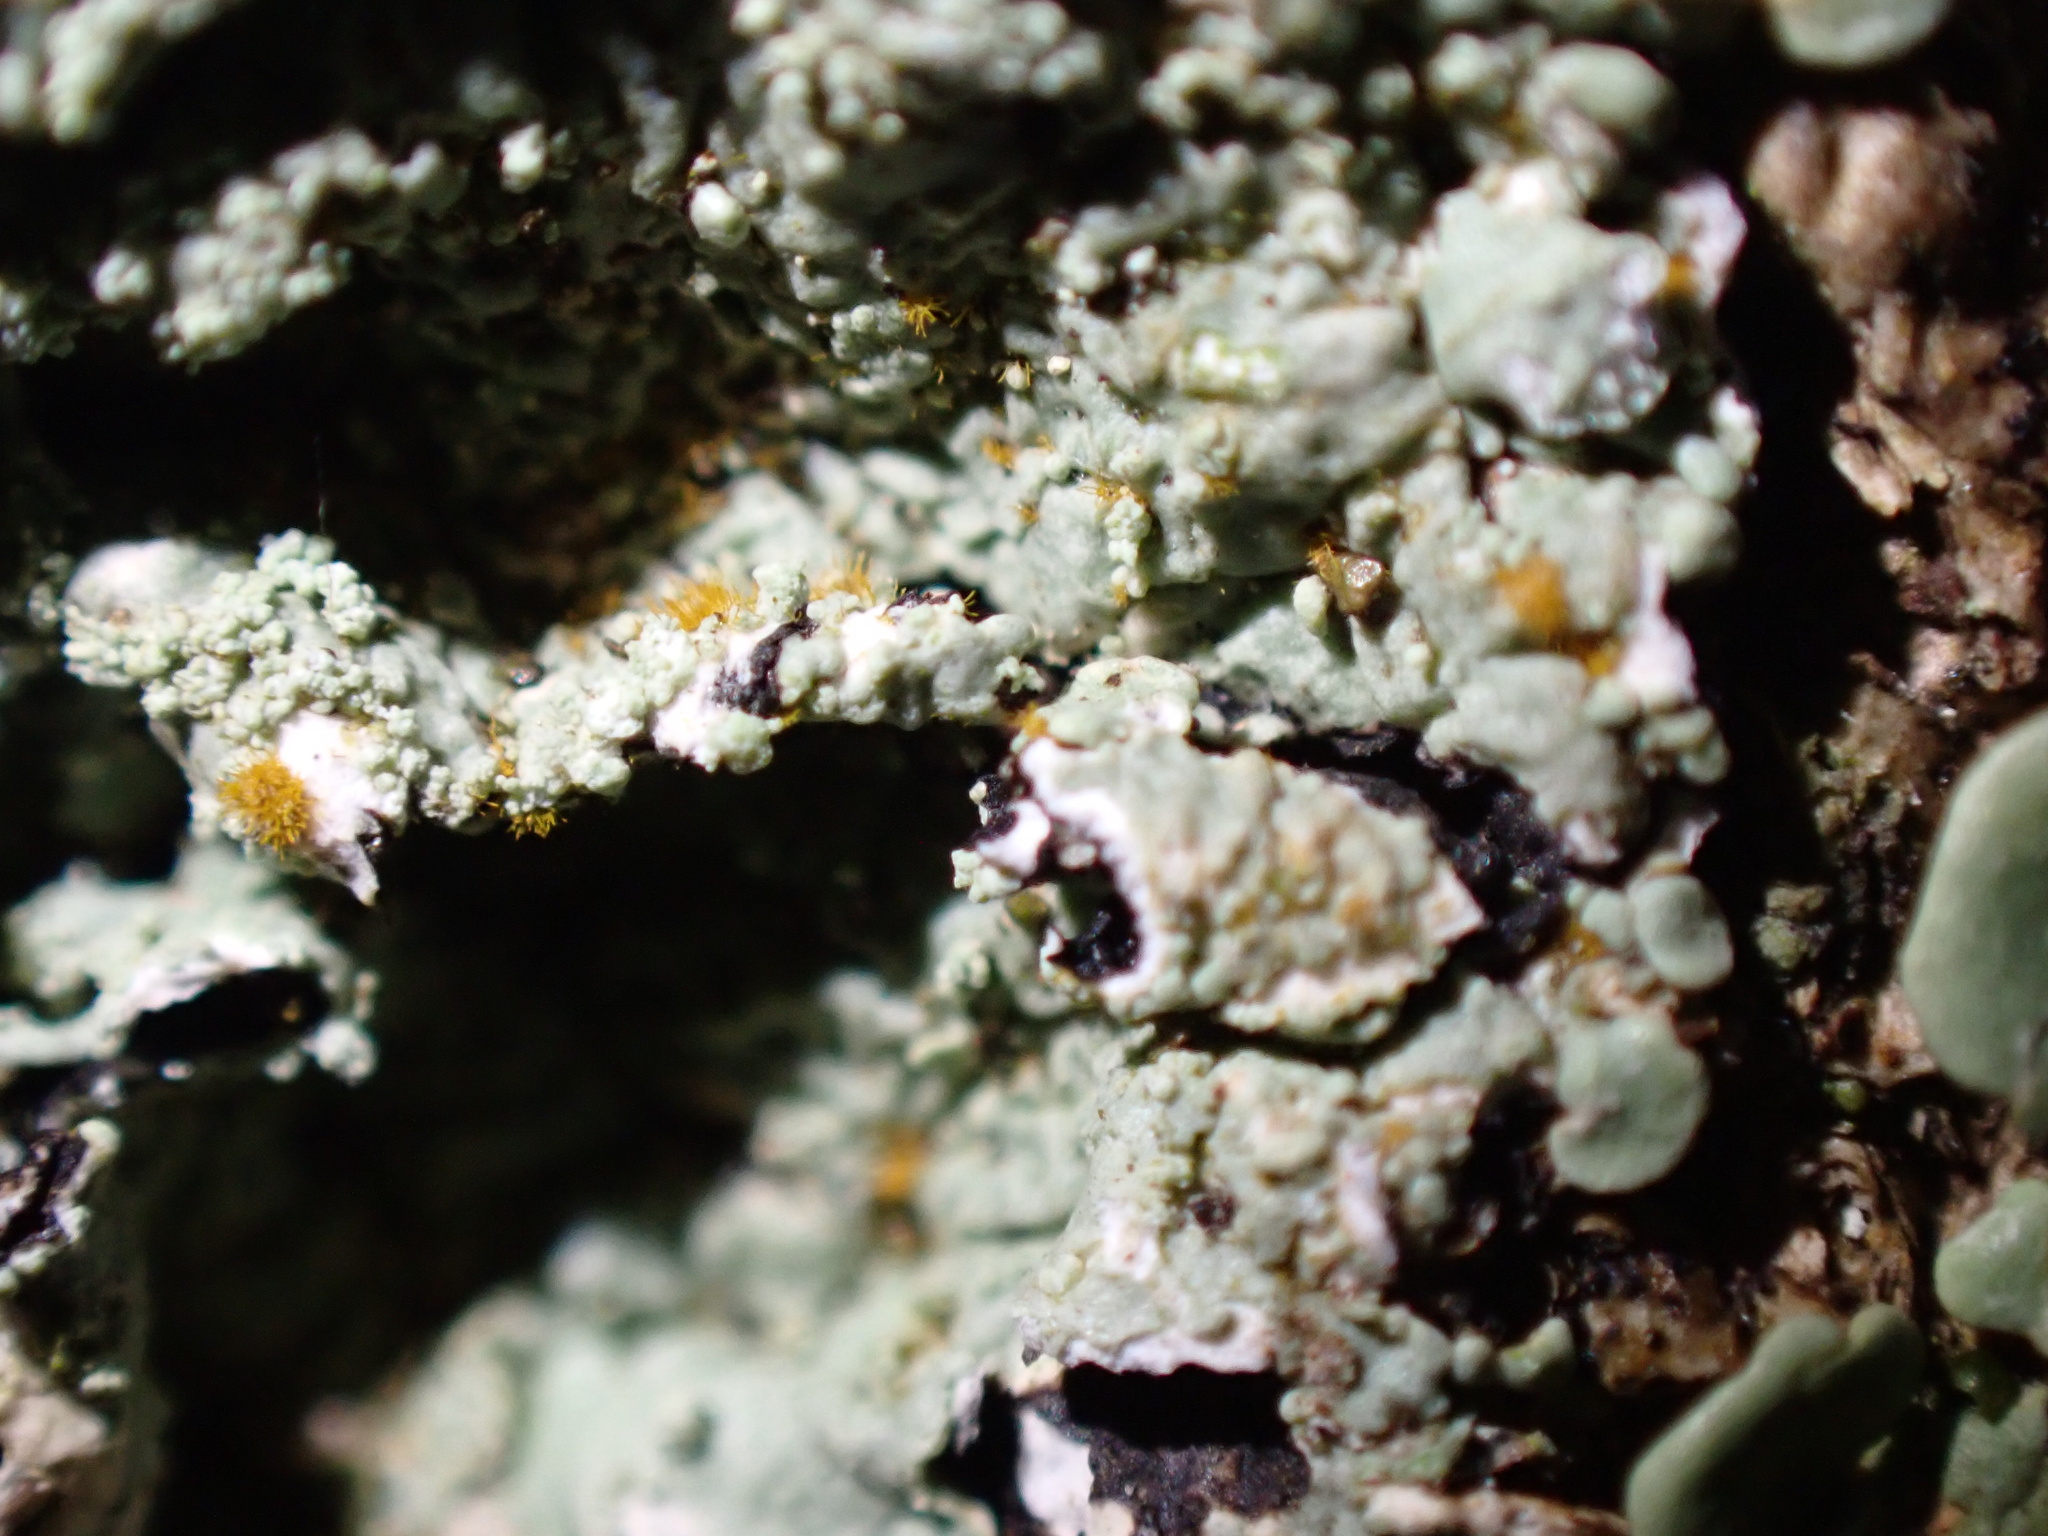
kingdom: Fungi
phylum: Ascomycota
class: Lecanoromycetes
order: Lecanorales
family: Parmeliaceae
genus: Flavoparmelia
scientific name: Flavoparmelia caperata
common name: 40-mile per hour lichen
